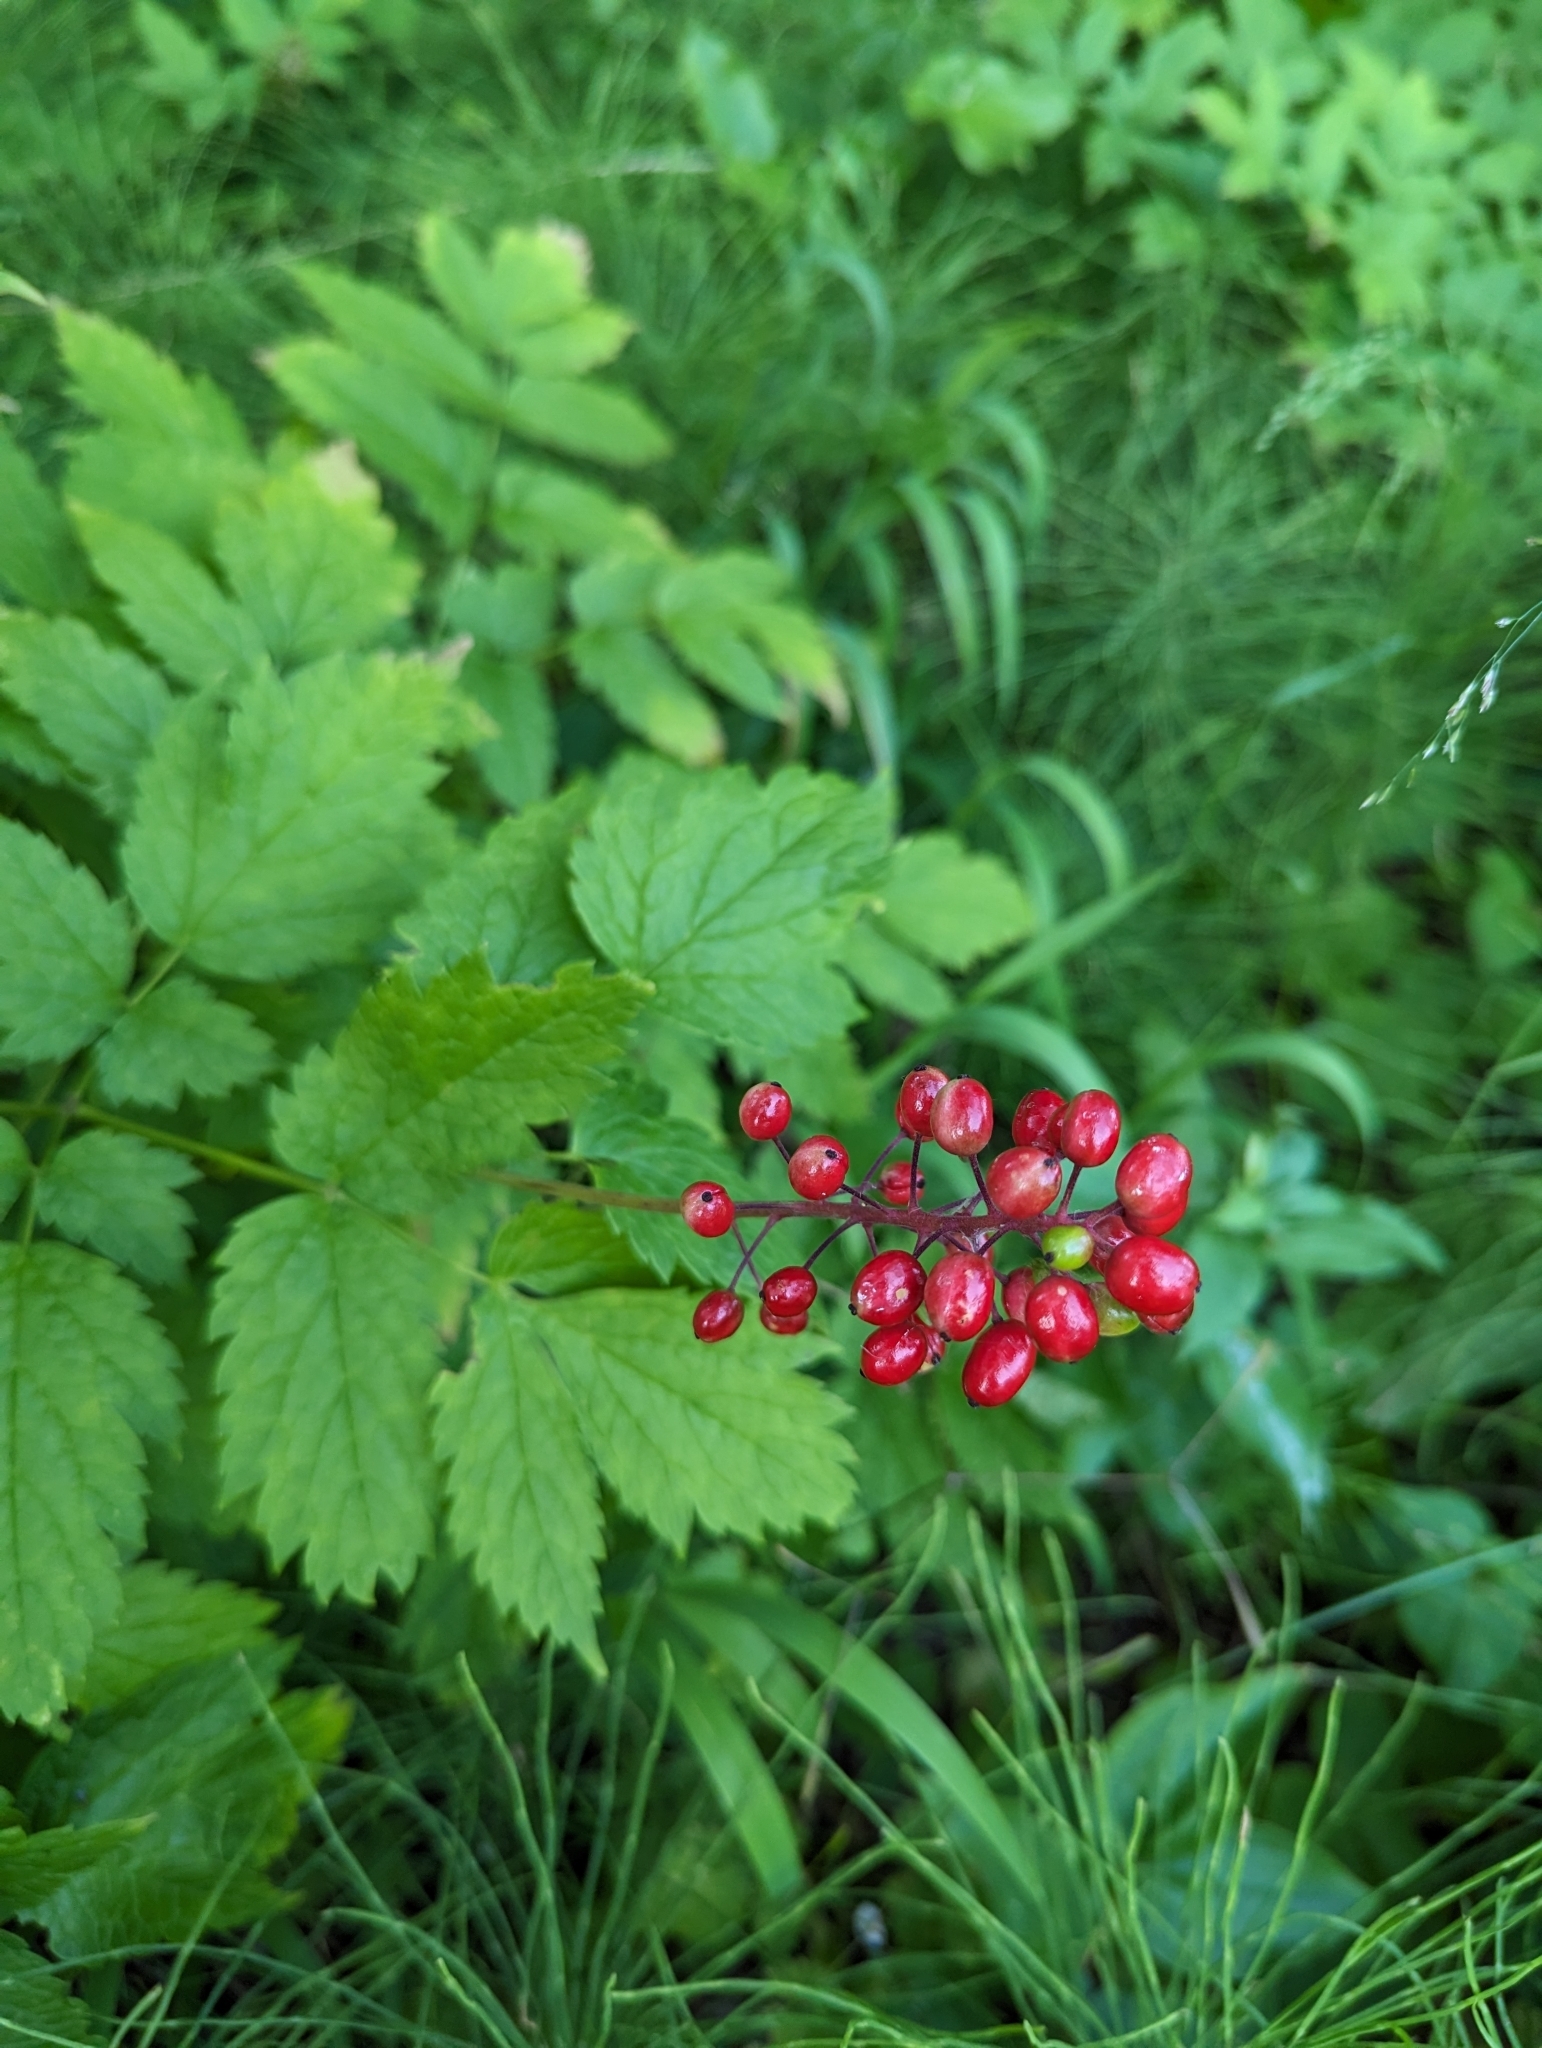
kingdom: Plantae
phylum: Tracheophyta
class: Magnoliopsida
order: Ranunculales
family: Ranunculaceae
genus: Actaea
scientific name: Actaea rubra
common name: Red baneberry
